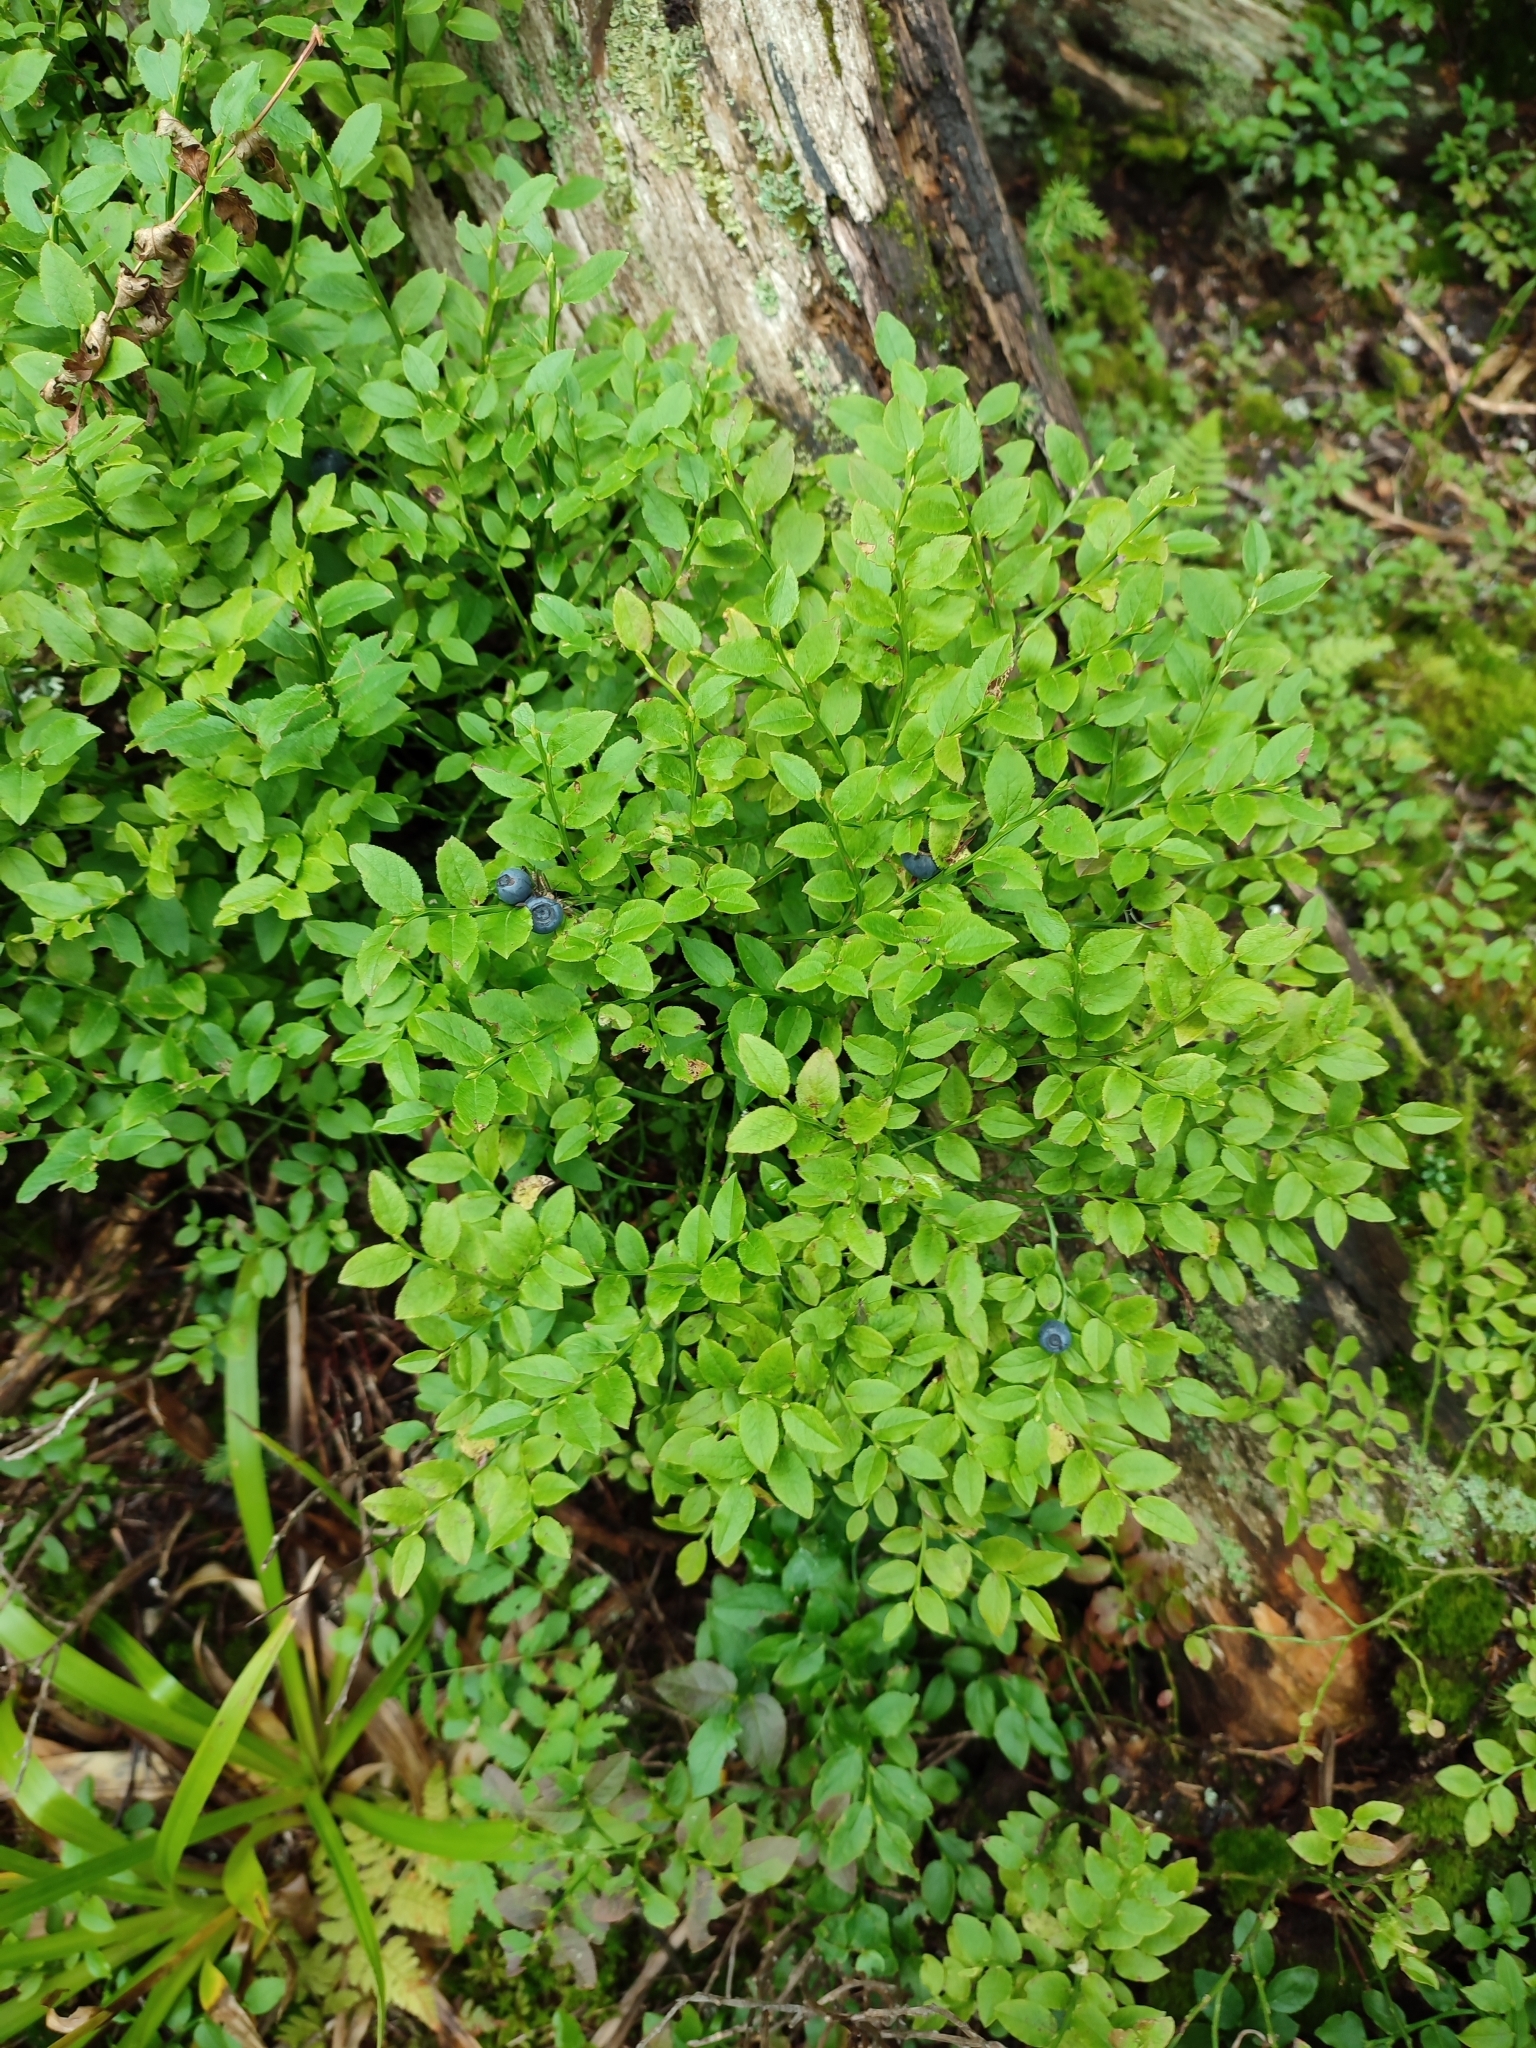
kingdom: Plantae
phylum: Tracheophyta
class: Magnoliopsida
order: Ericales
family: Ericaceae
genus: Vaccinium
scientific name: Vaccinium myrtillus
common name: Bilberry
